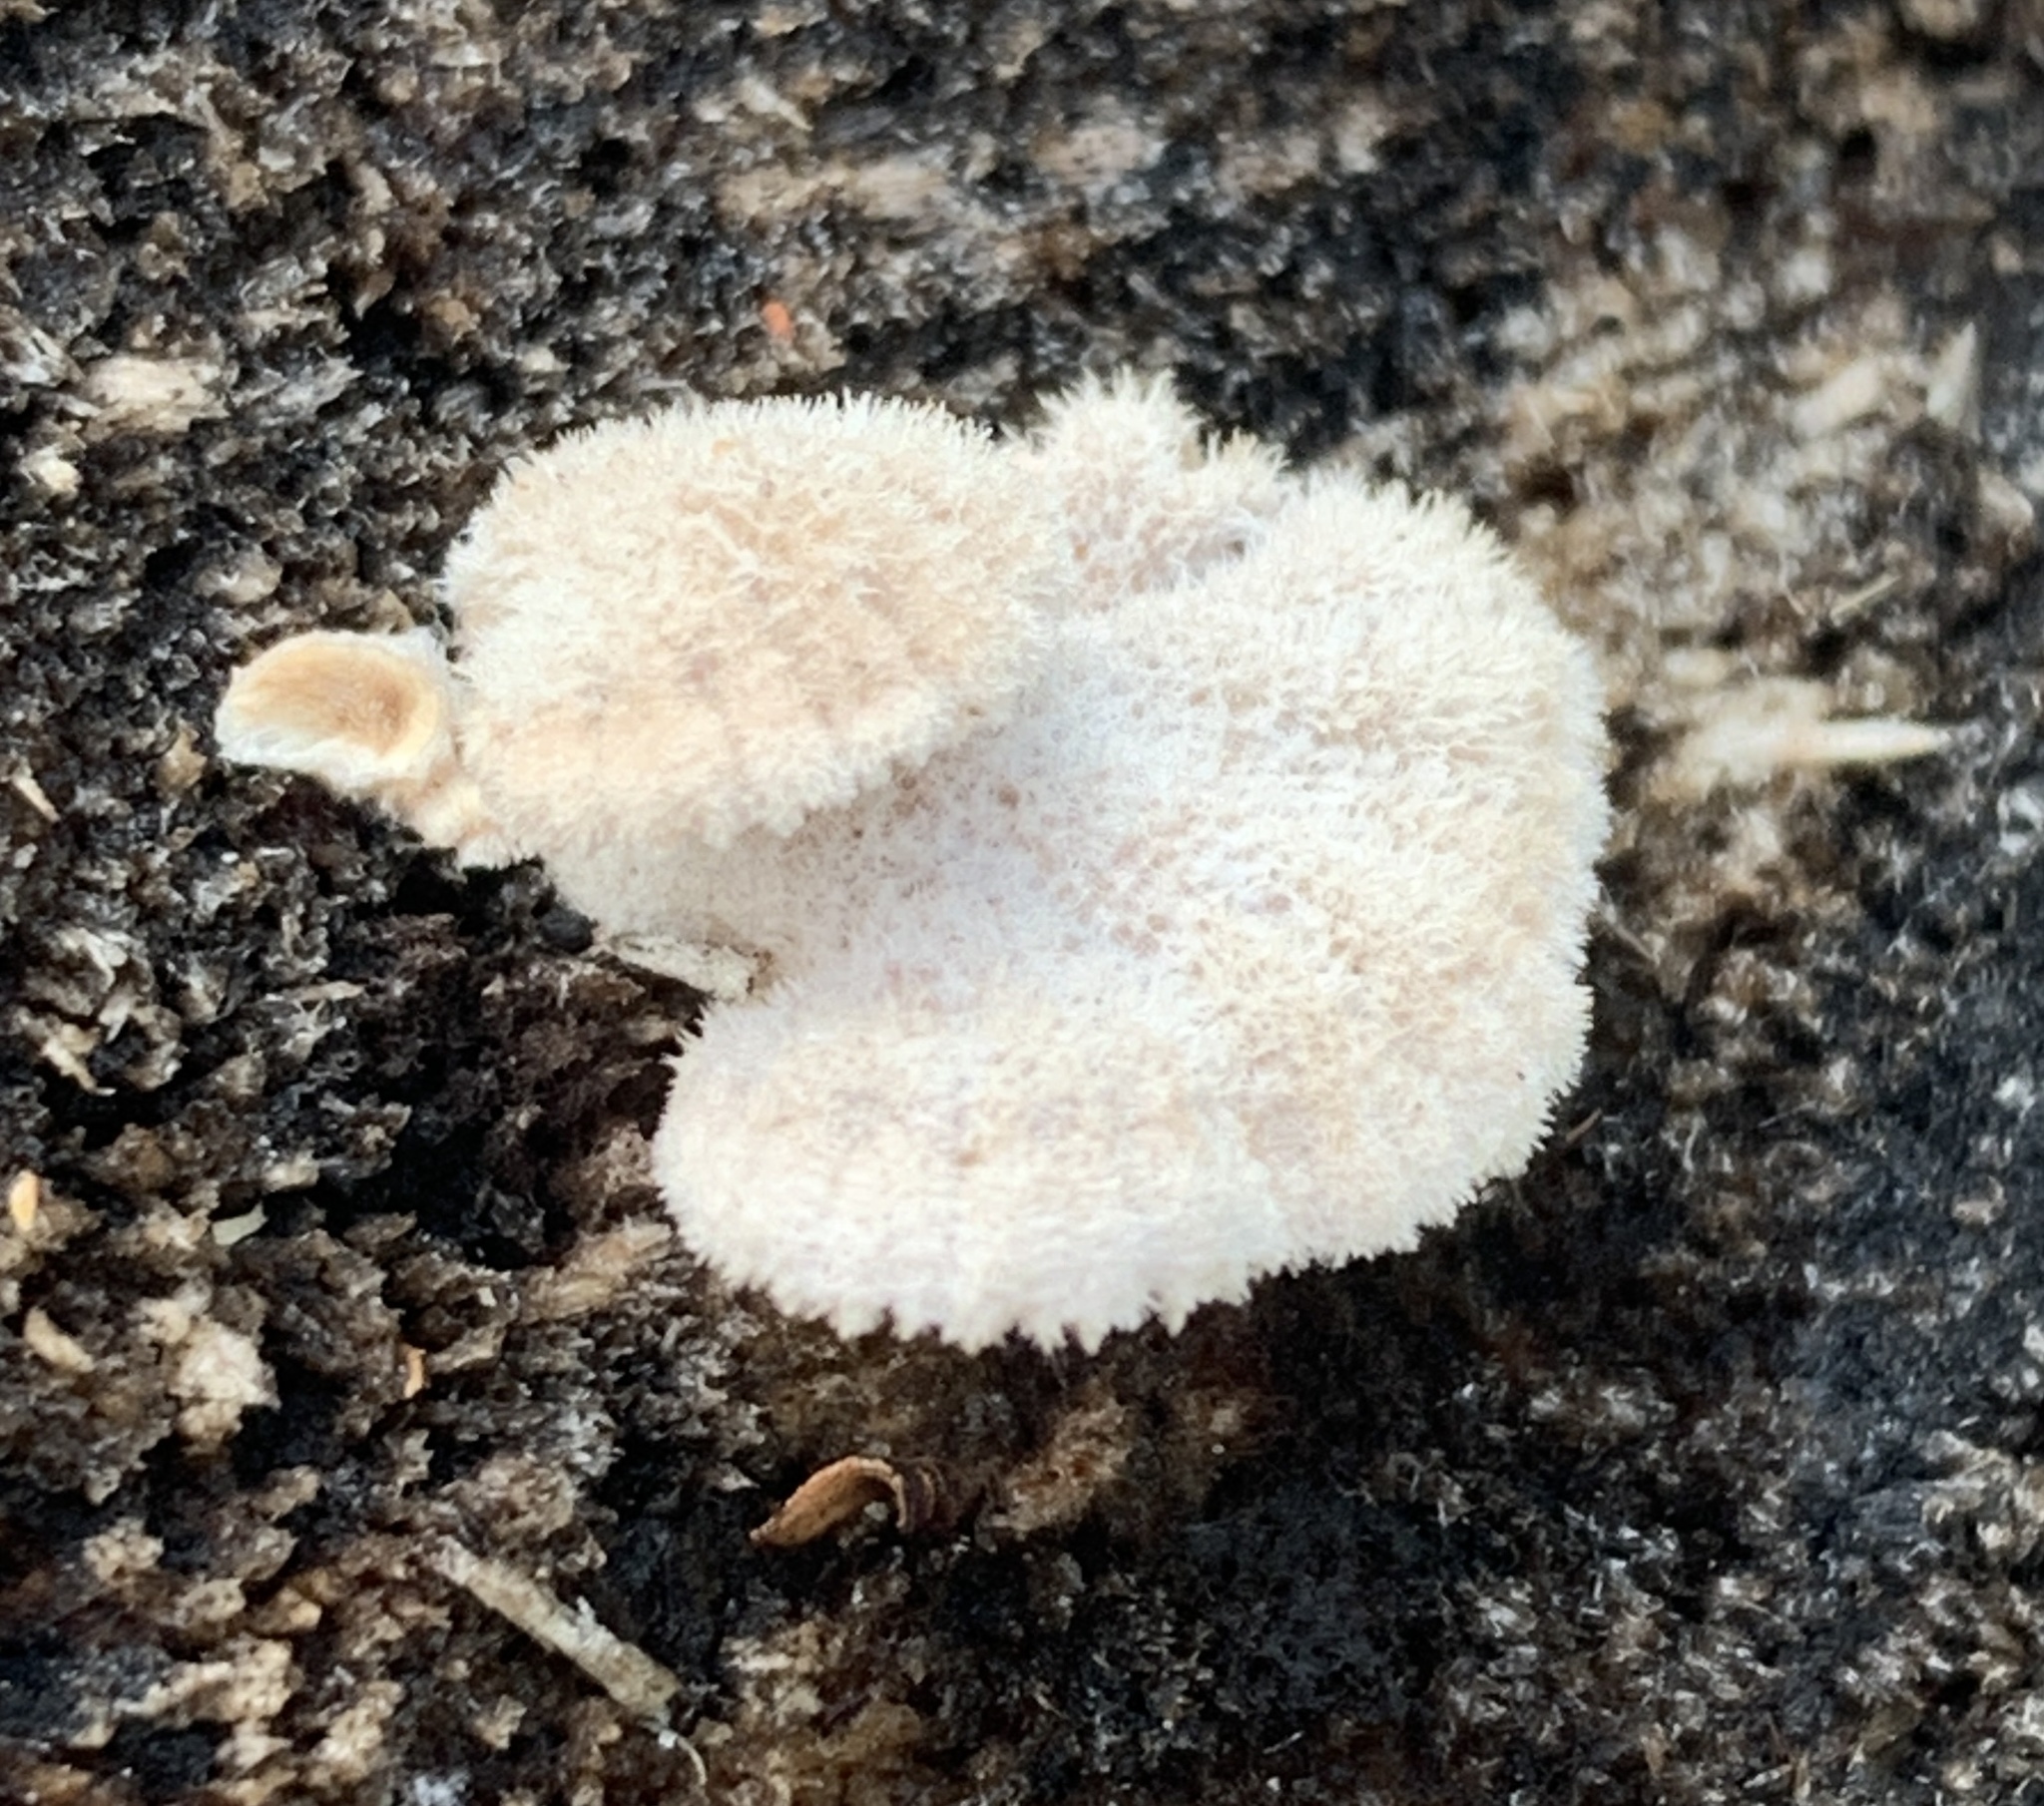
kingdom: Fungi
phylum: Basidiomycota
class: Agaricomycetes
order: Agaricales
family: Schizophyllaceae
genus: Schizophyllum
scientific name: Schizophyllum commune
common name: Common porecrust
